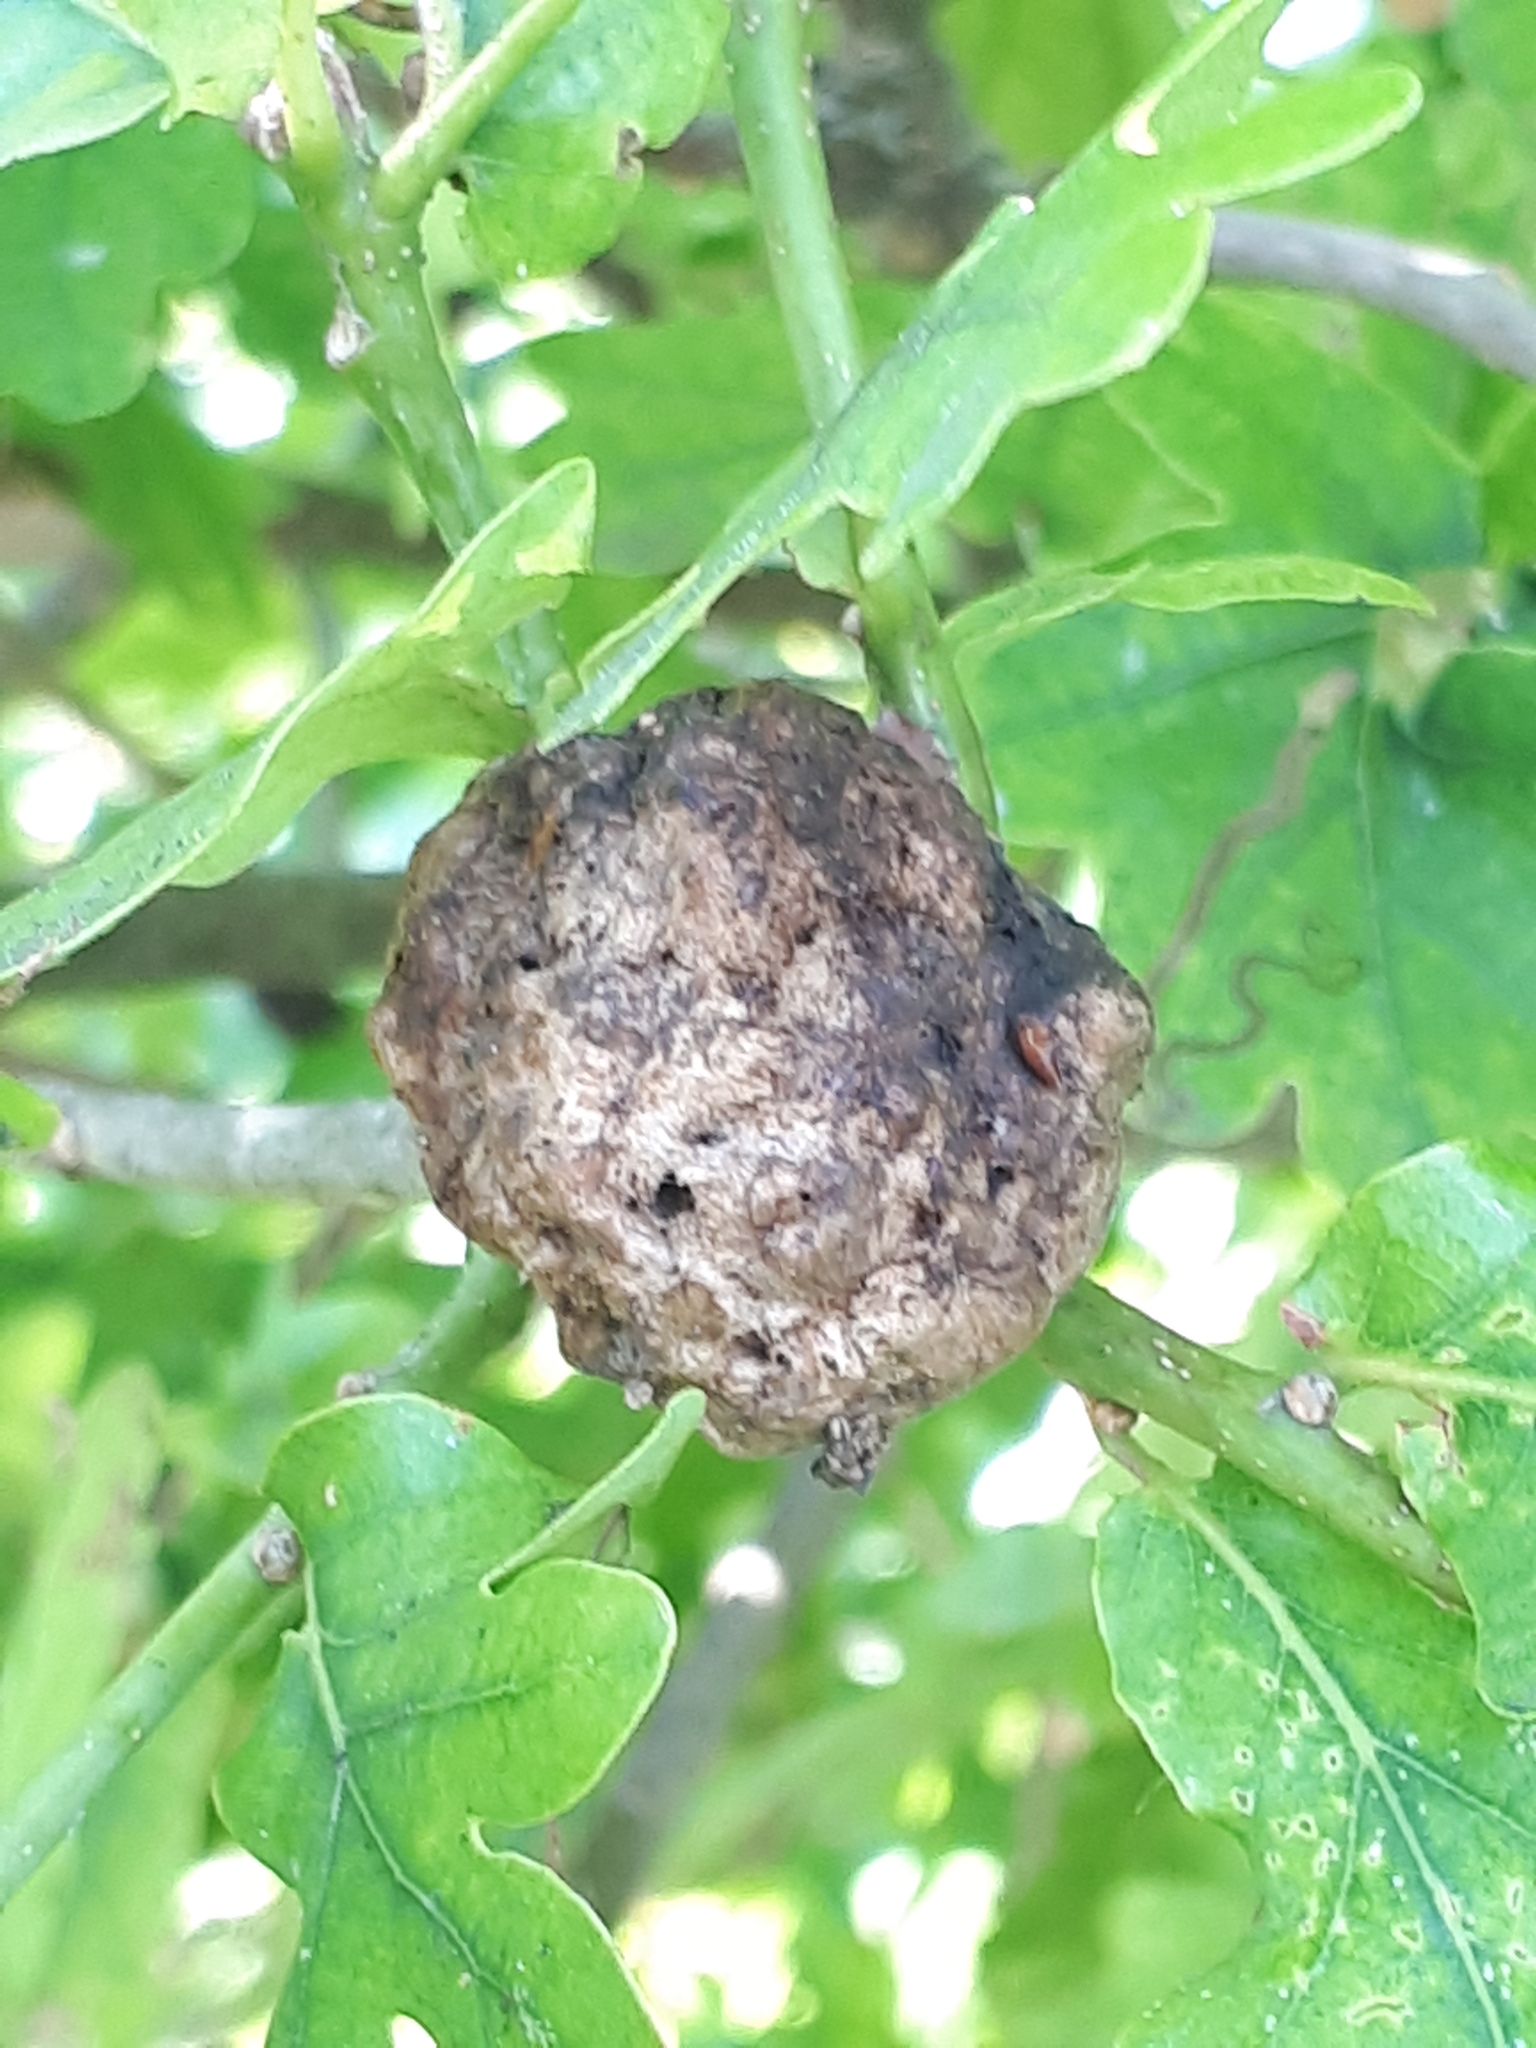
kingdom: Animalia
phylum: Arthropoda
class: Insecta
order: Hymenoptera
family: Cynipidae
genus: Biorhiza
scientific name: Biorhiza pallida
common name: Oak apple
